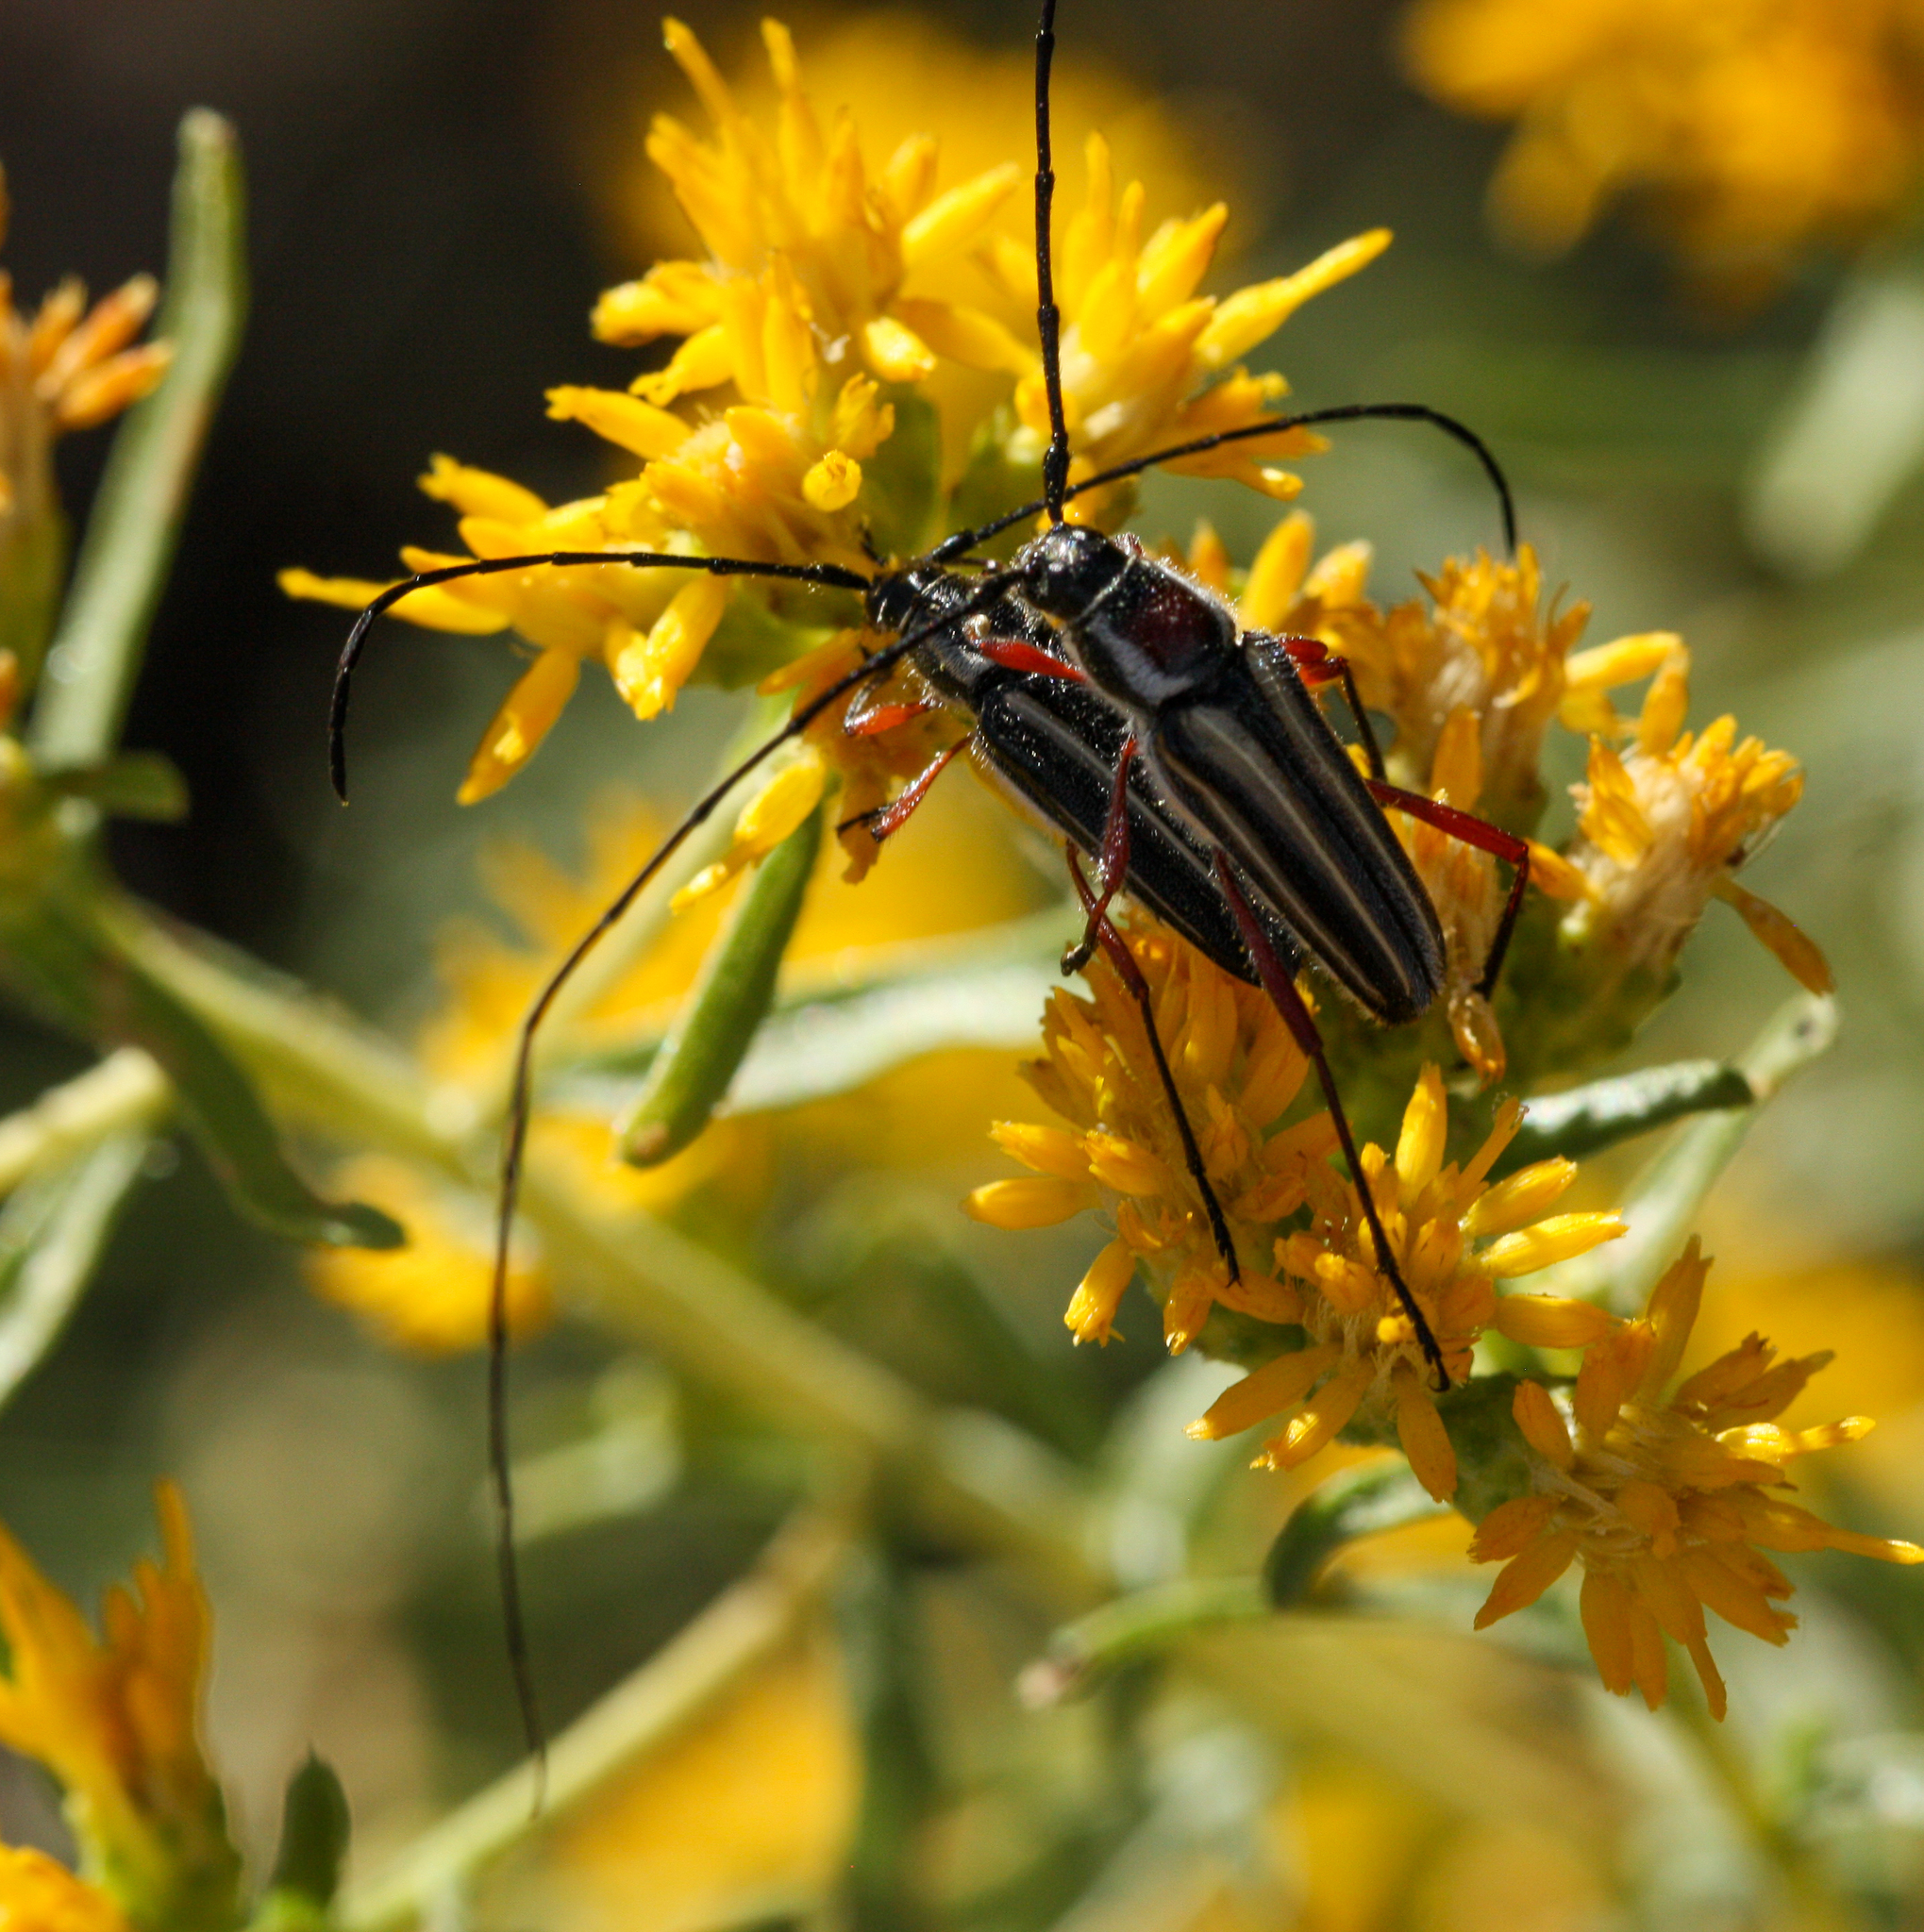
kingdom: Animalia
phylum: Arthropoda
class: Insecta
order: Coleoptera
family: Cerambycidae
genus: Sphaenothecus
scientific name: Sphaenothecus bilineatus
